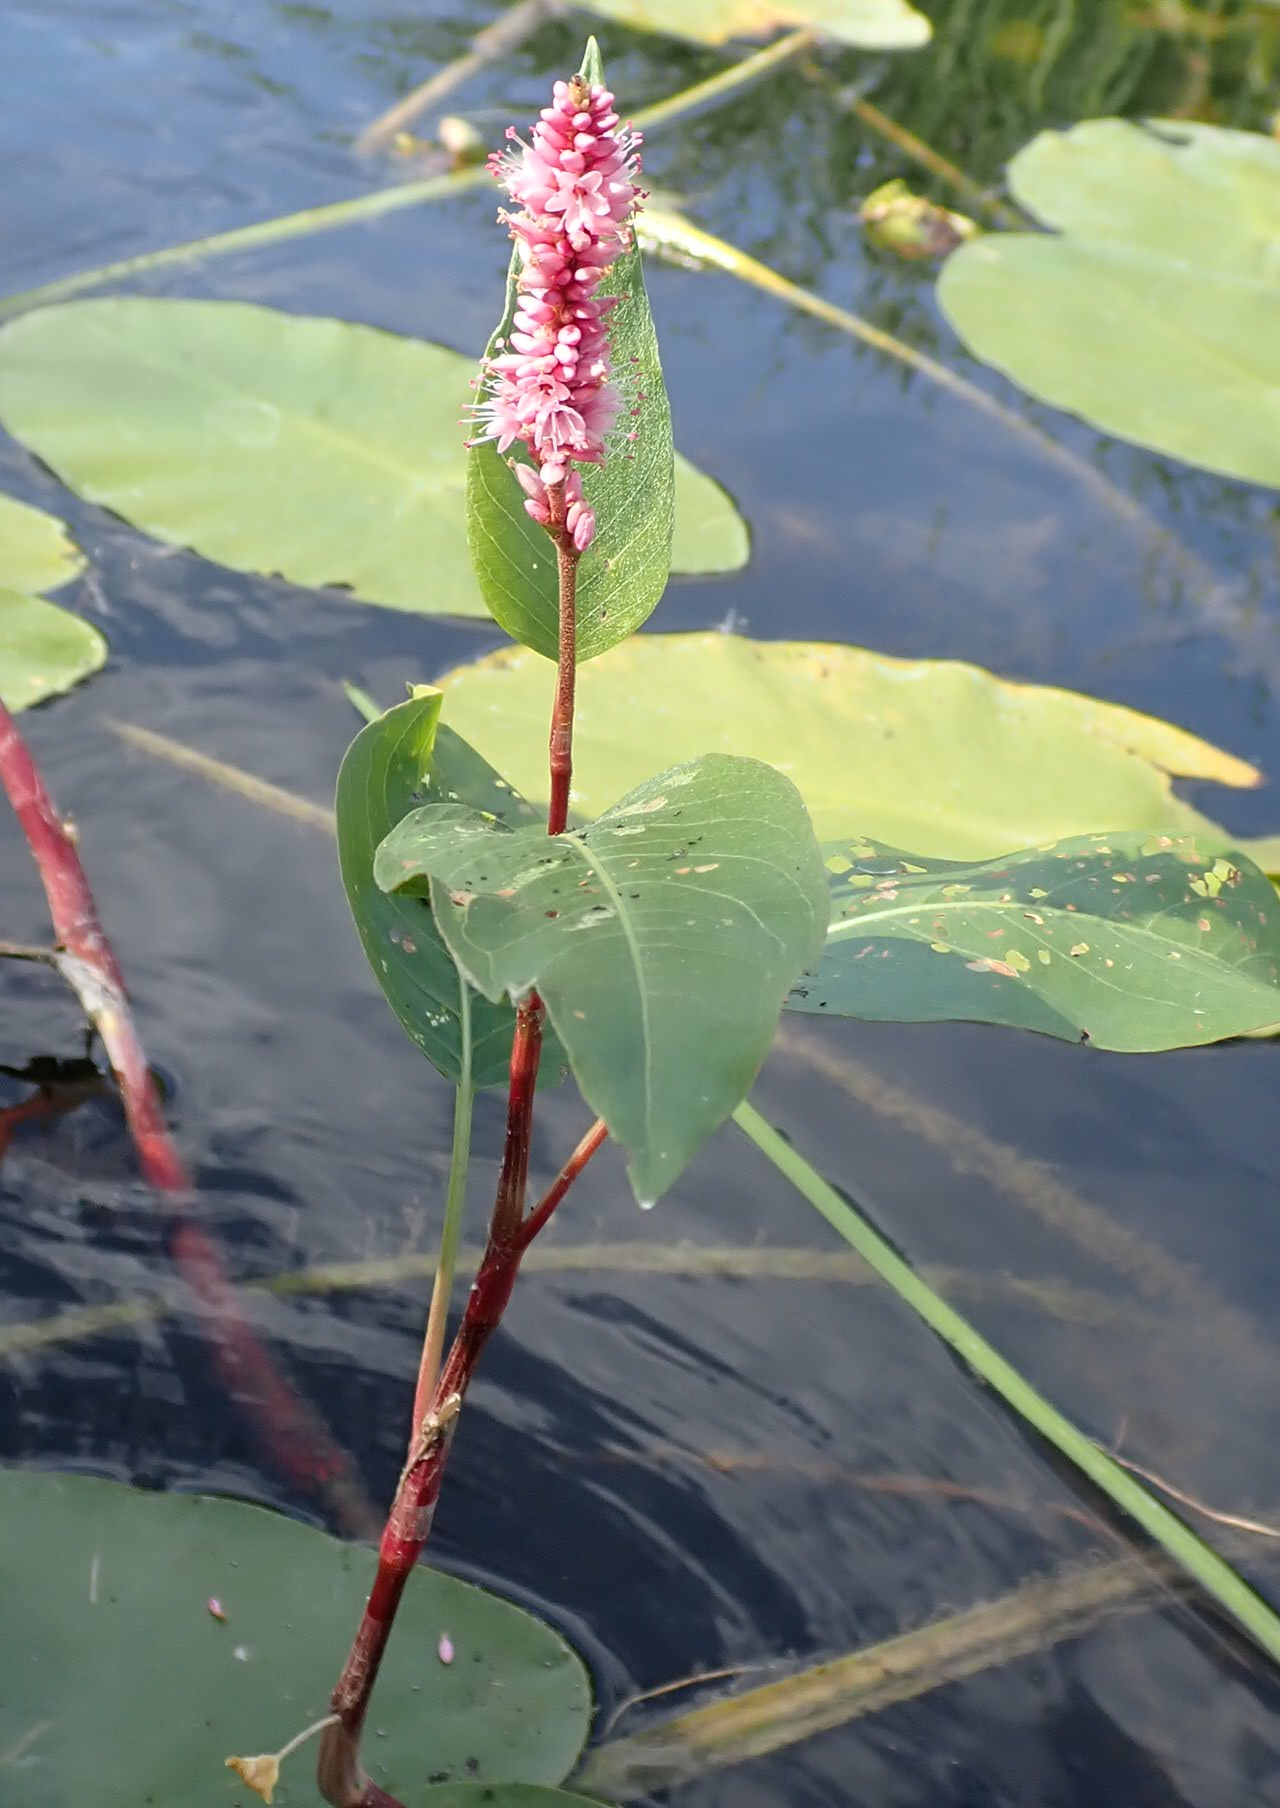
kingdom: Plantae
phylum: Tracheophyta
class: Magnoliopsida
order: Caryophyllales
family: Polygonaceae
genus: Persicaria
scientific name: Persicaria amphibia
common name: Amphibious bistort
